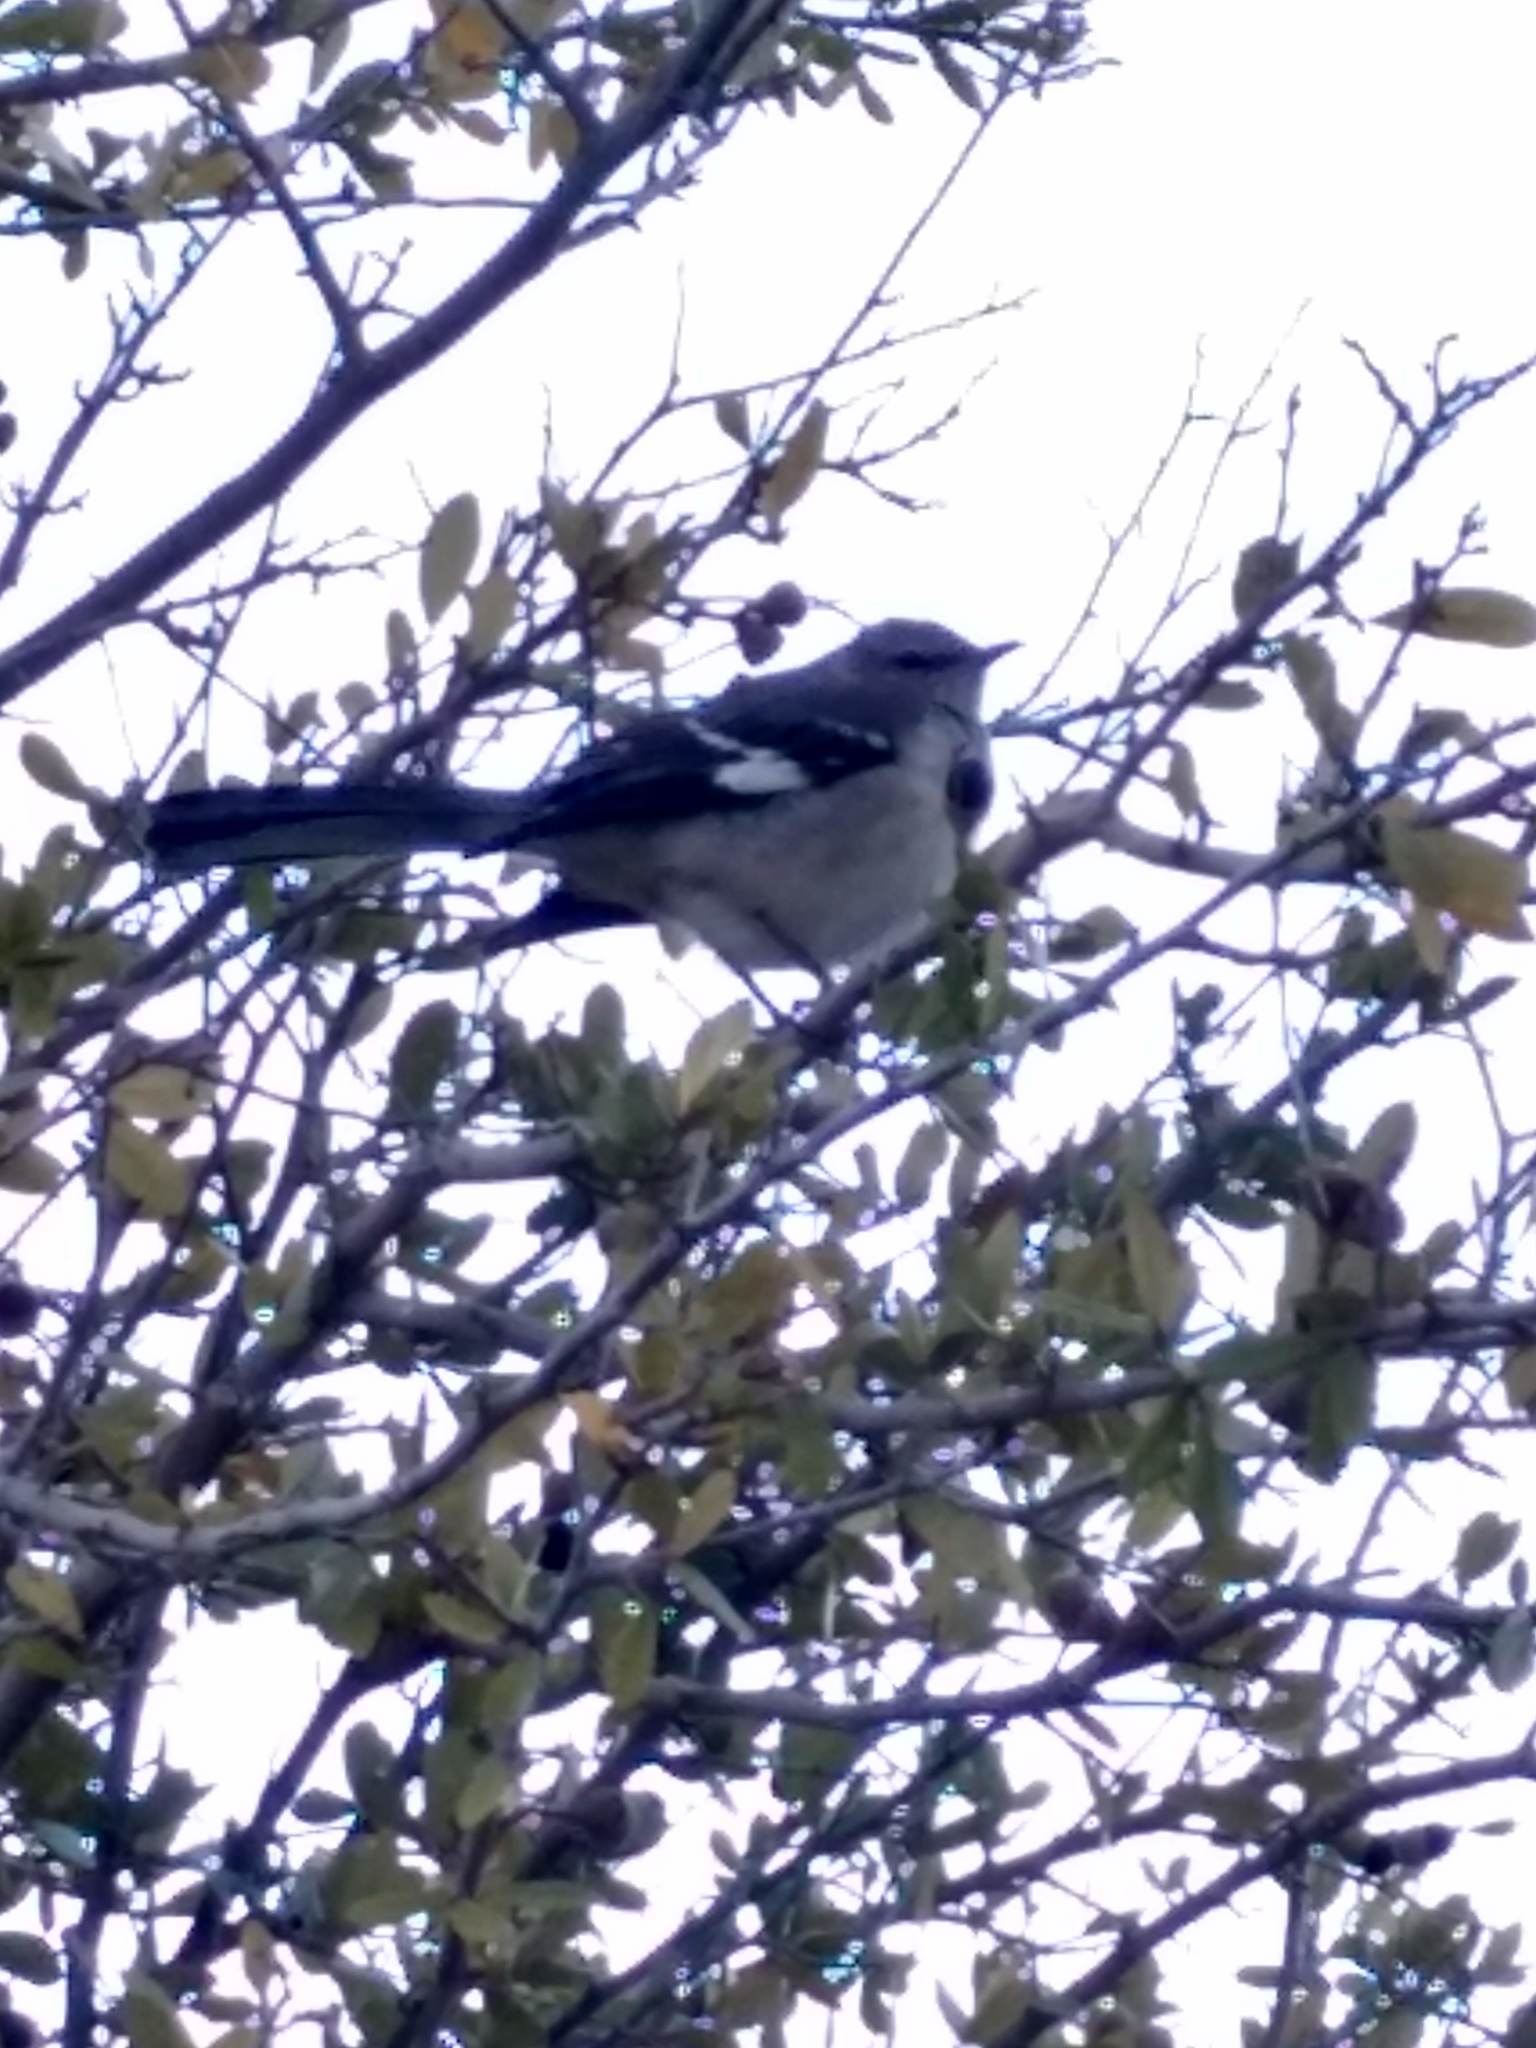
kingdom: Animalia
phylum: Chordata
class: Aves
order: Passeriformes
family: Mimidae
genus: Mimus
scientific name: Mimus polyglottos
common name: Northern mockingbird
